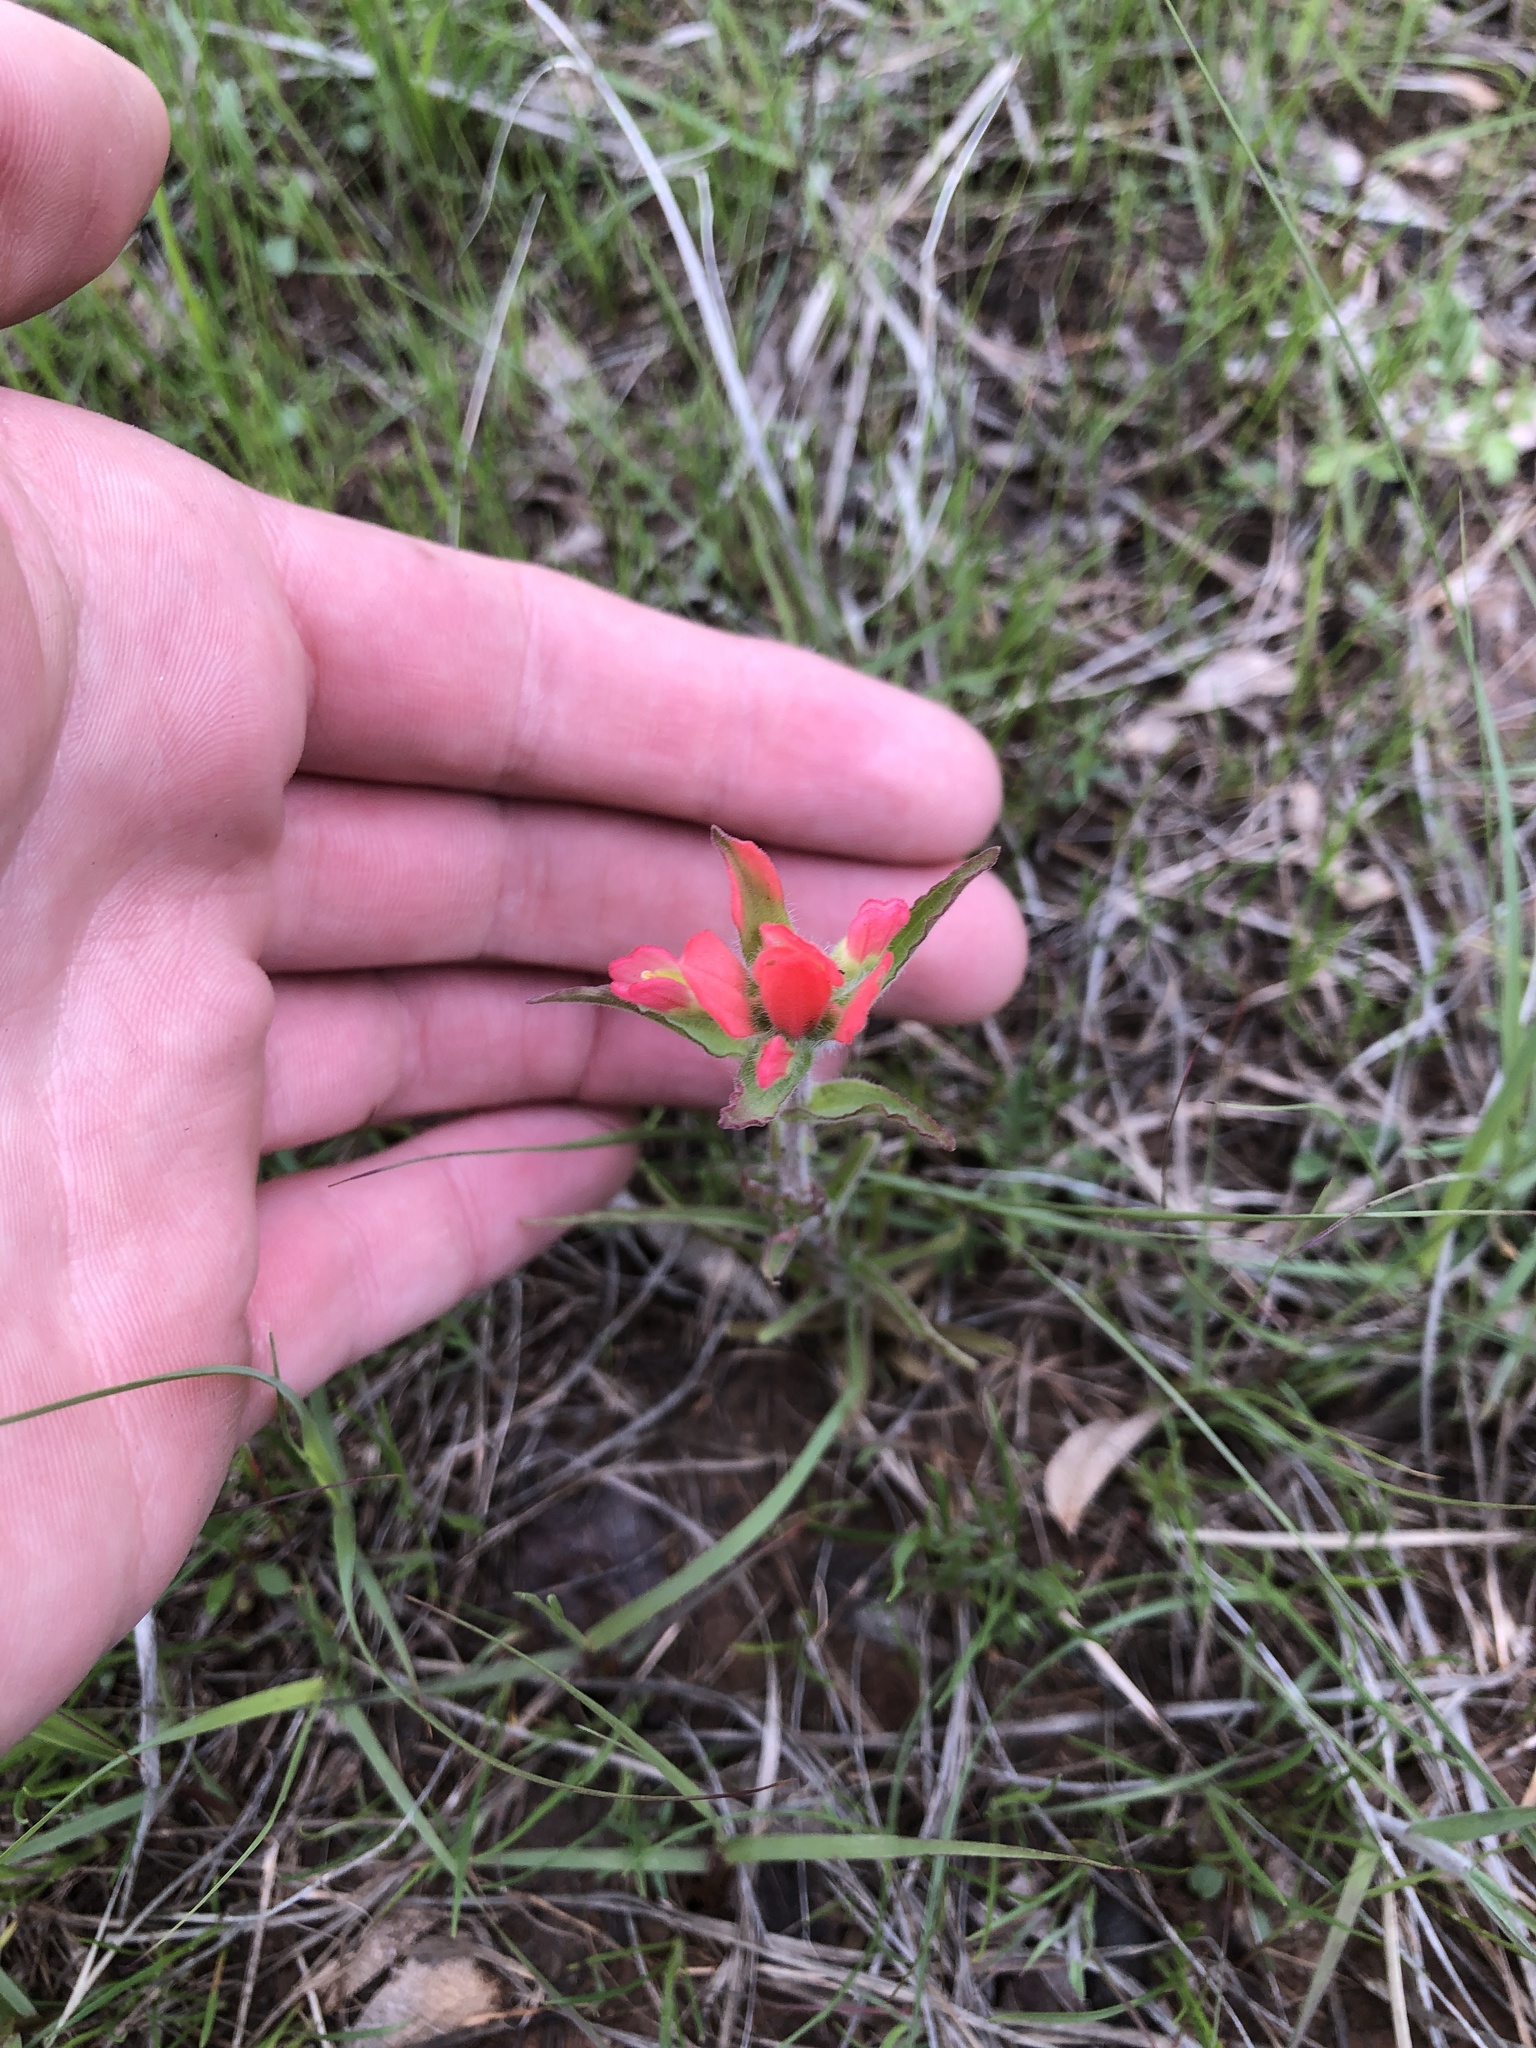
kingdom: Plantae
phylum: Tracheophyta
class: Magnoliopsida
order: Lamiales
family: Orobanchaceae
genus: Castilleja
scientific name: Castilleja indivisa
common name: Texas paintbrush
